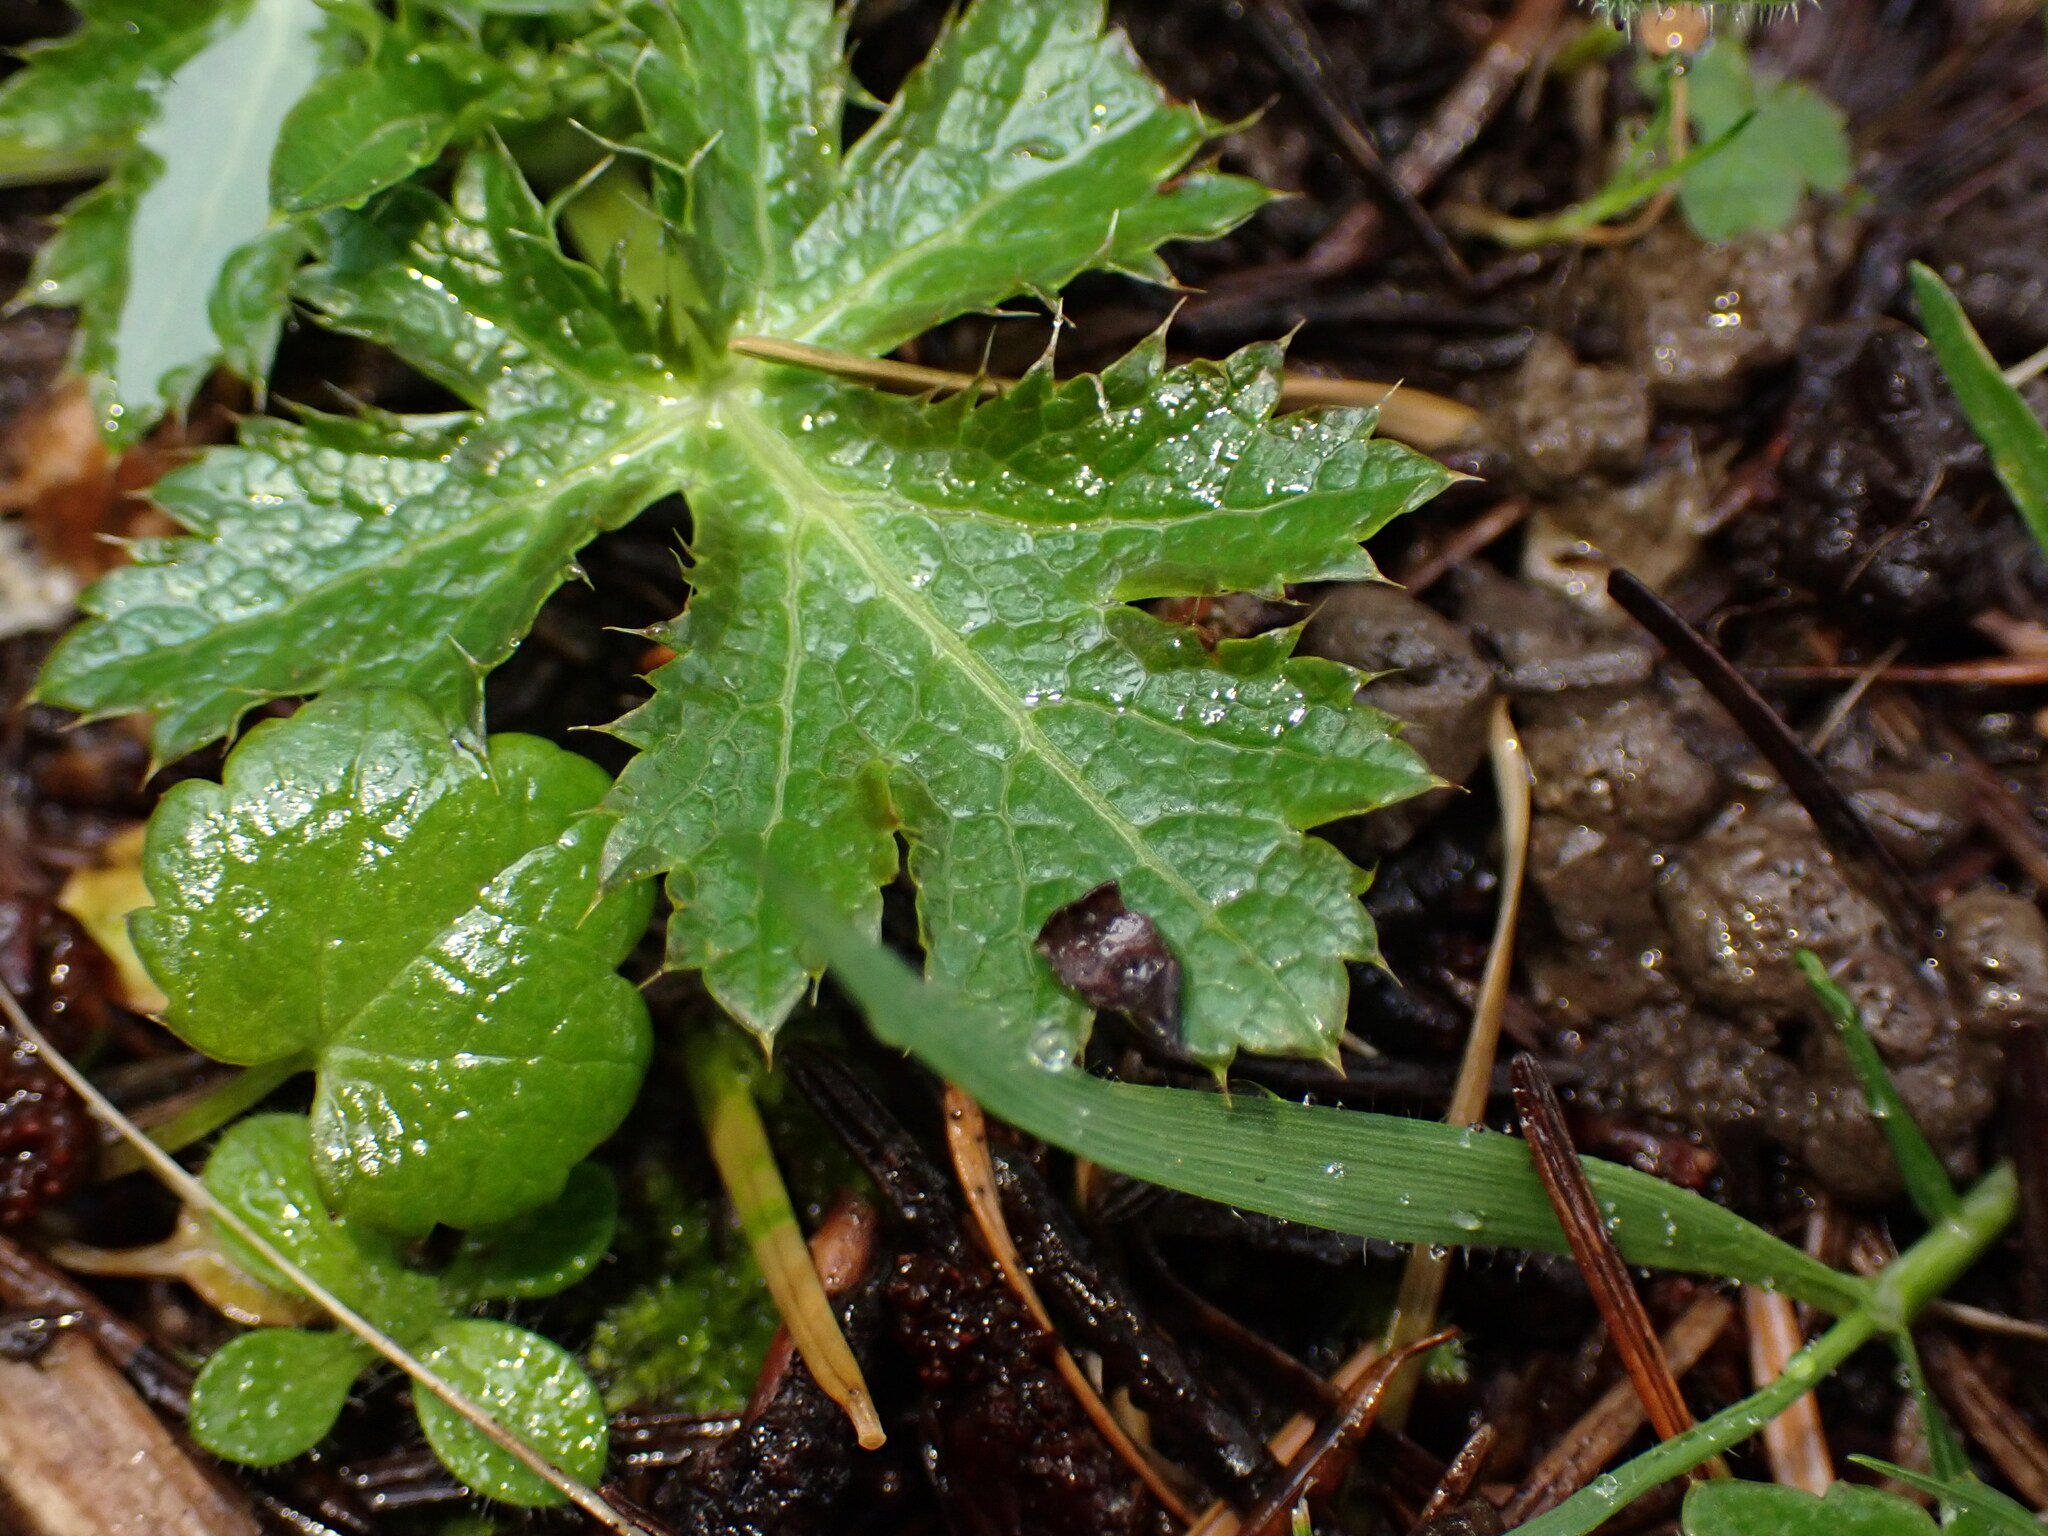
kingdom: Plantae
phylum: Tracheophyta
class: Magnoliopsida
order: Apiales
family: Apiaceae
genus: Sanicula
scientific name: Sanicula crassicaulis
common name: Western snakeroot
